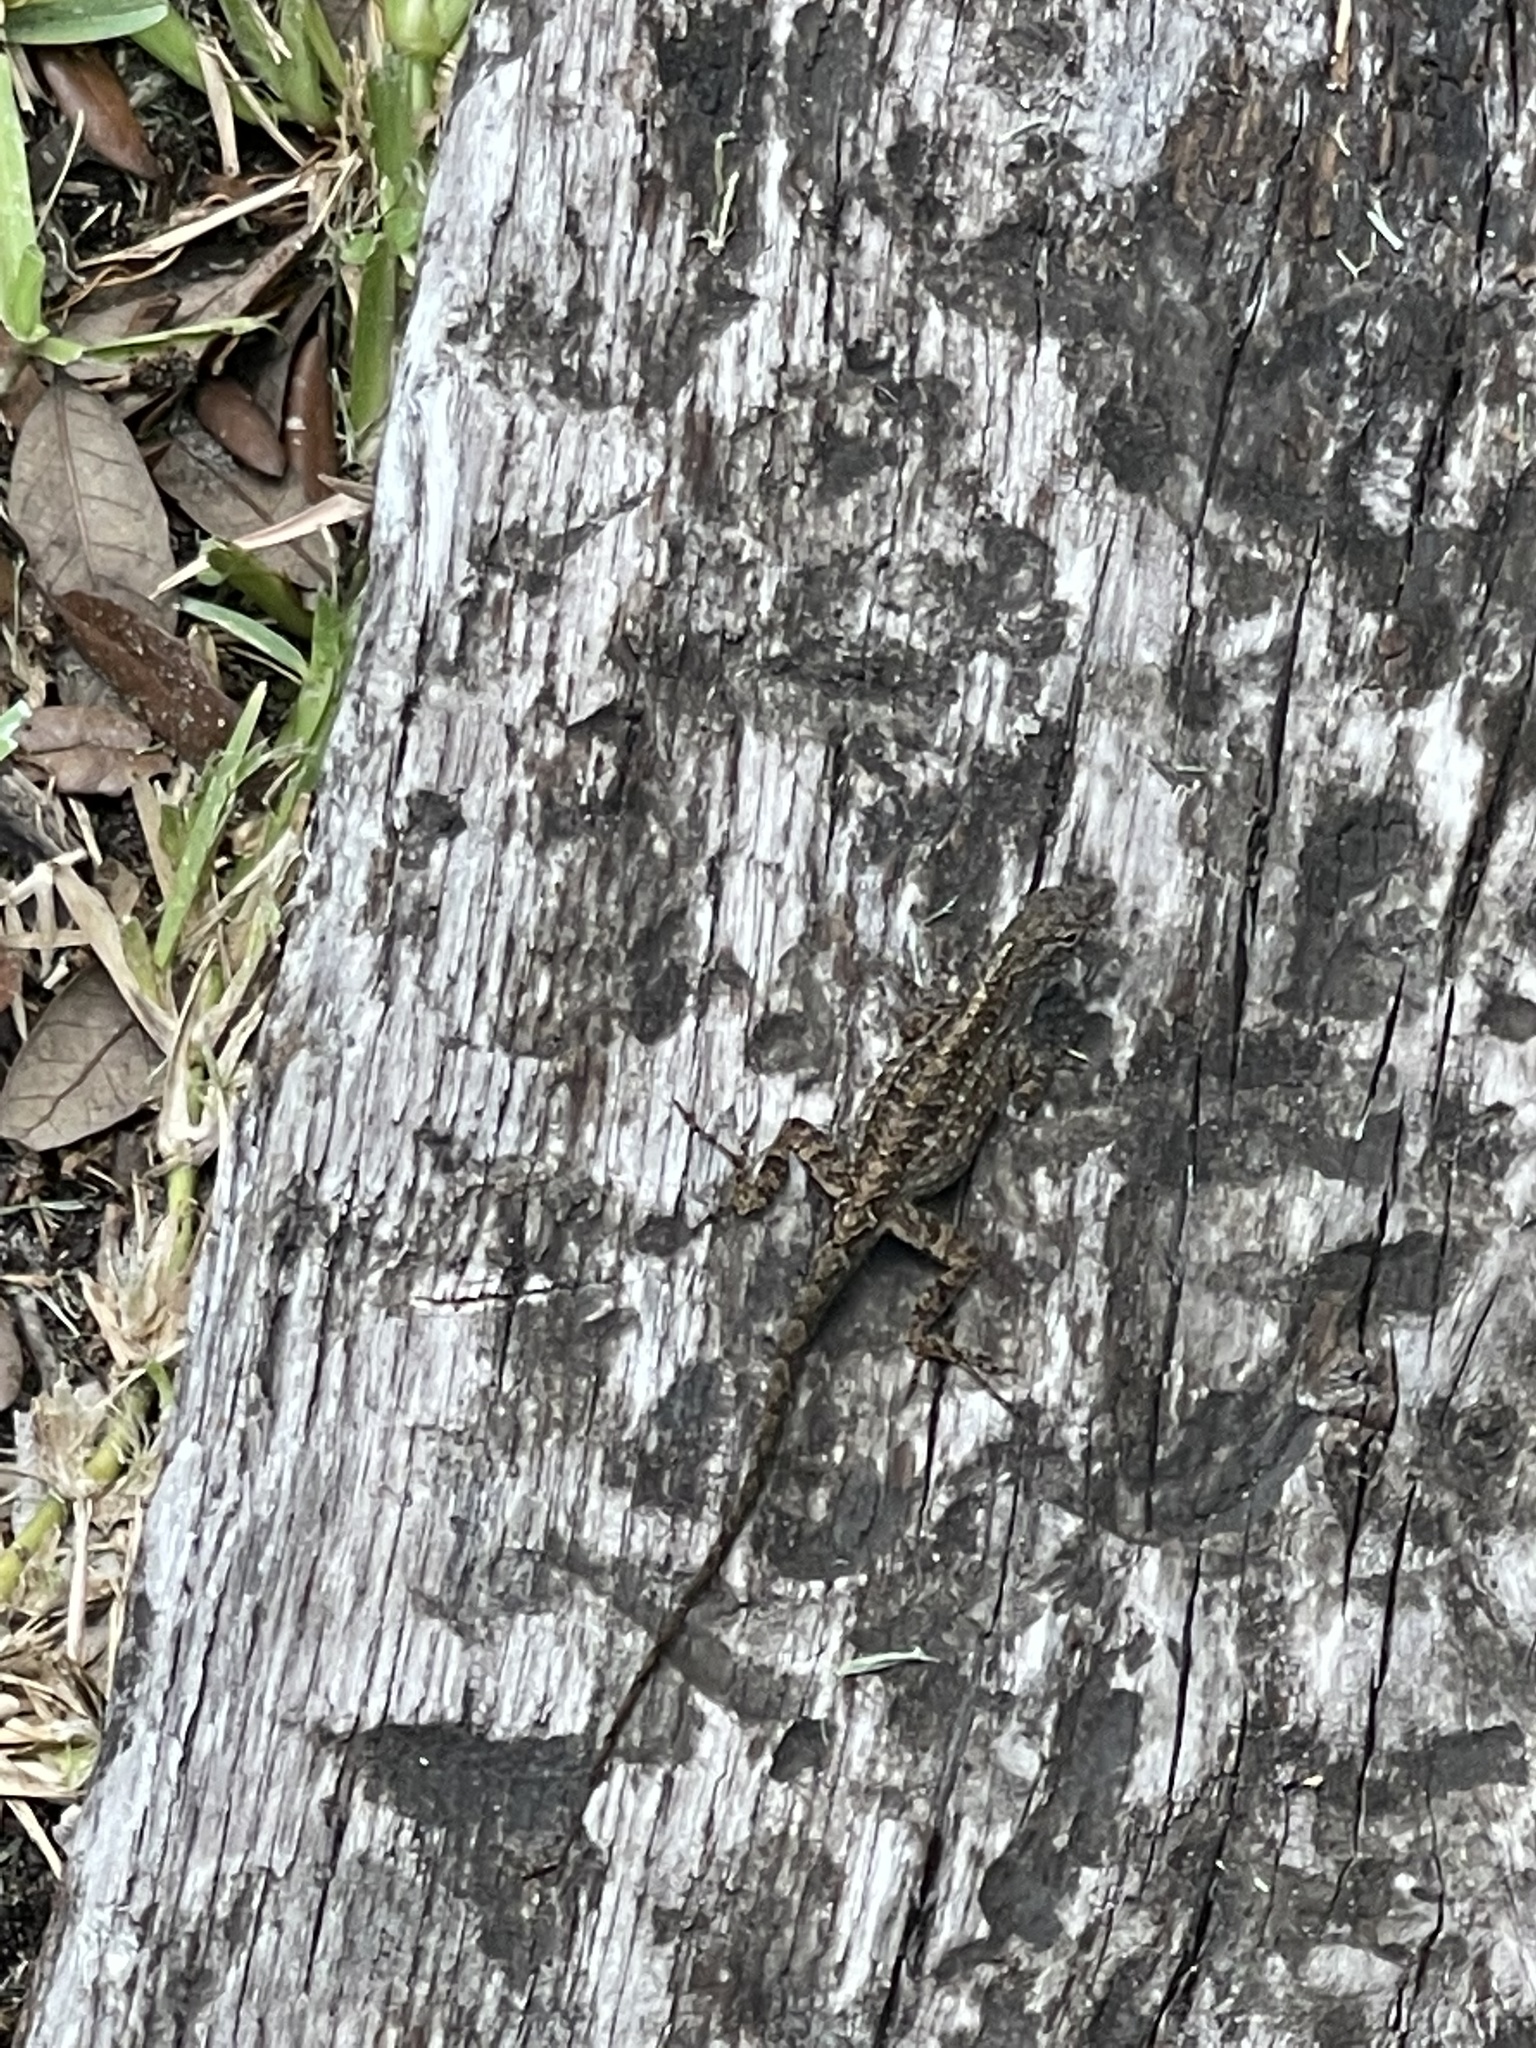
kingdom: Animalia
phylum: Chordata
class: Squamata
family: Dactyloidae
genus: Anolis
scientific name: Anolis sagrei
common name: Brown anole
